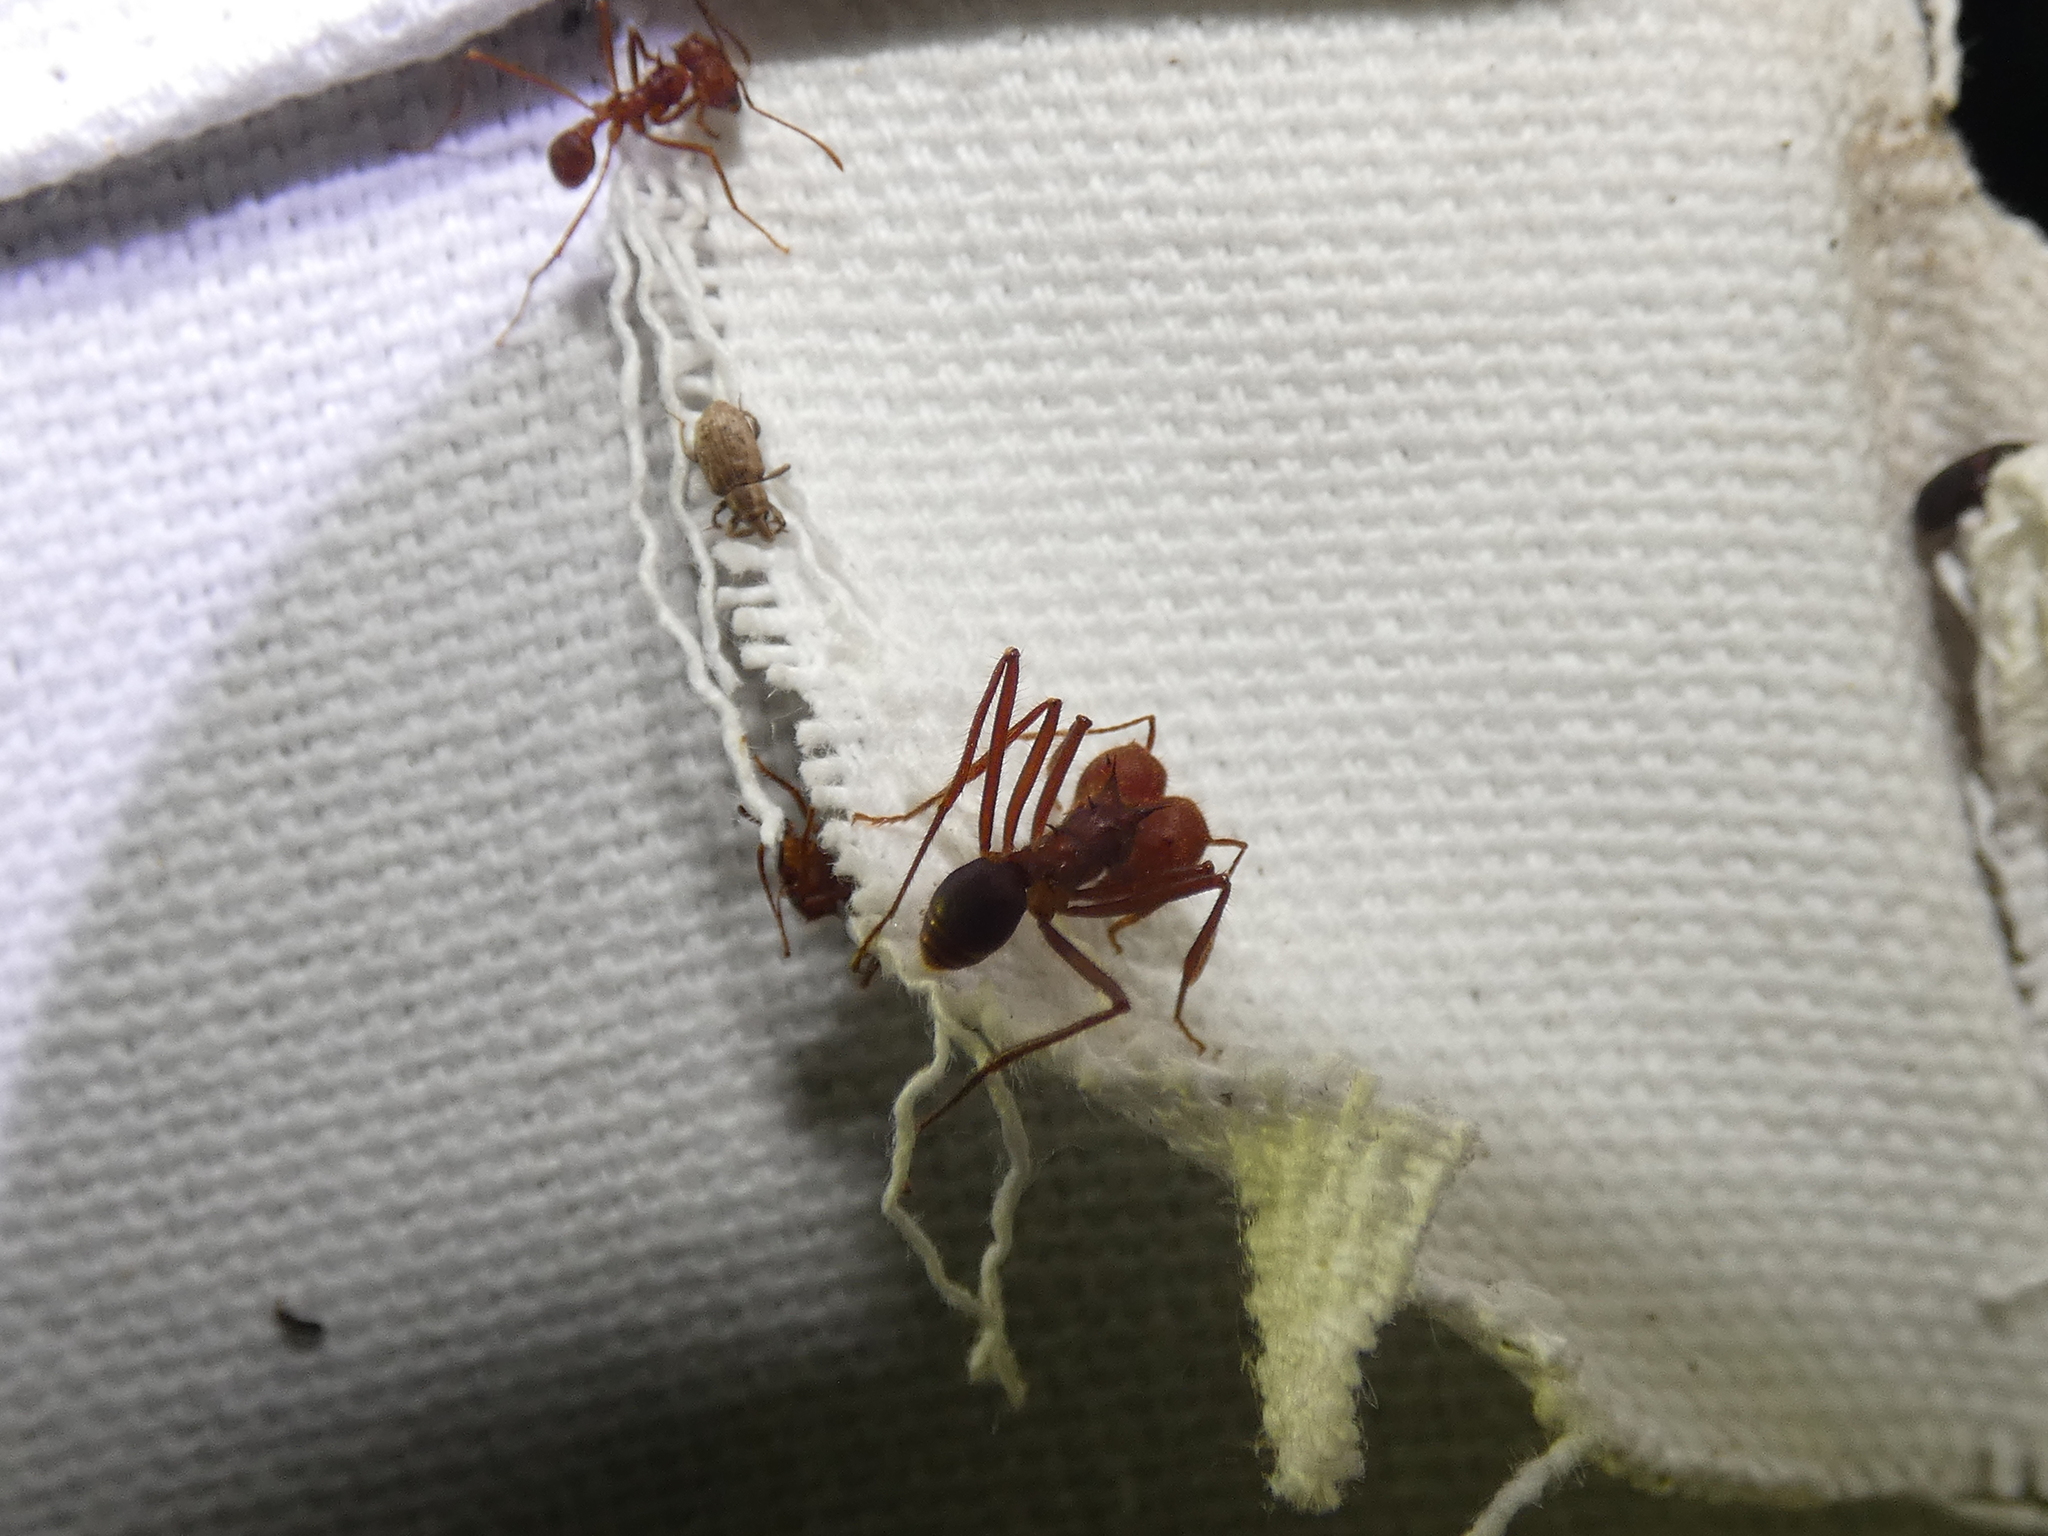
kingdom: Animalia
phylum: Arthropoda
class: Insecta
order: Hymenoptera
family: Formicidae
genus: Atta
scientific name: Atta texana
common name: Texas leafcutting ant
